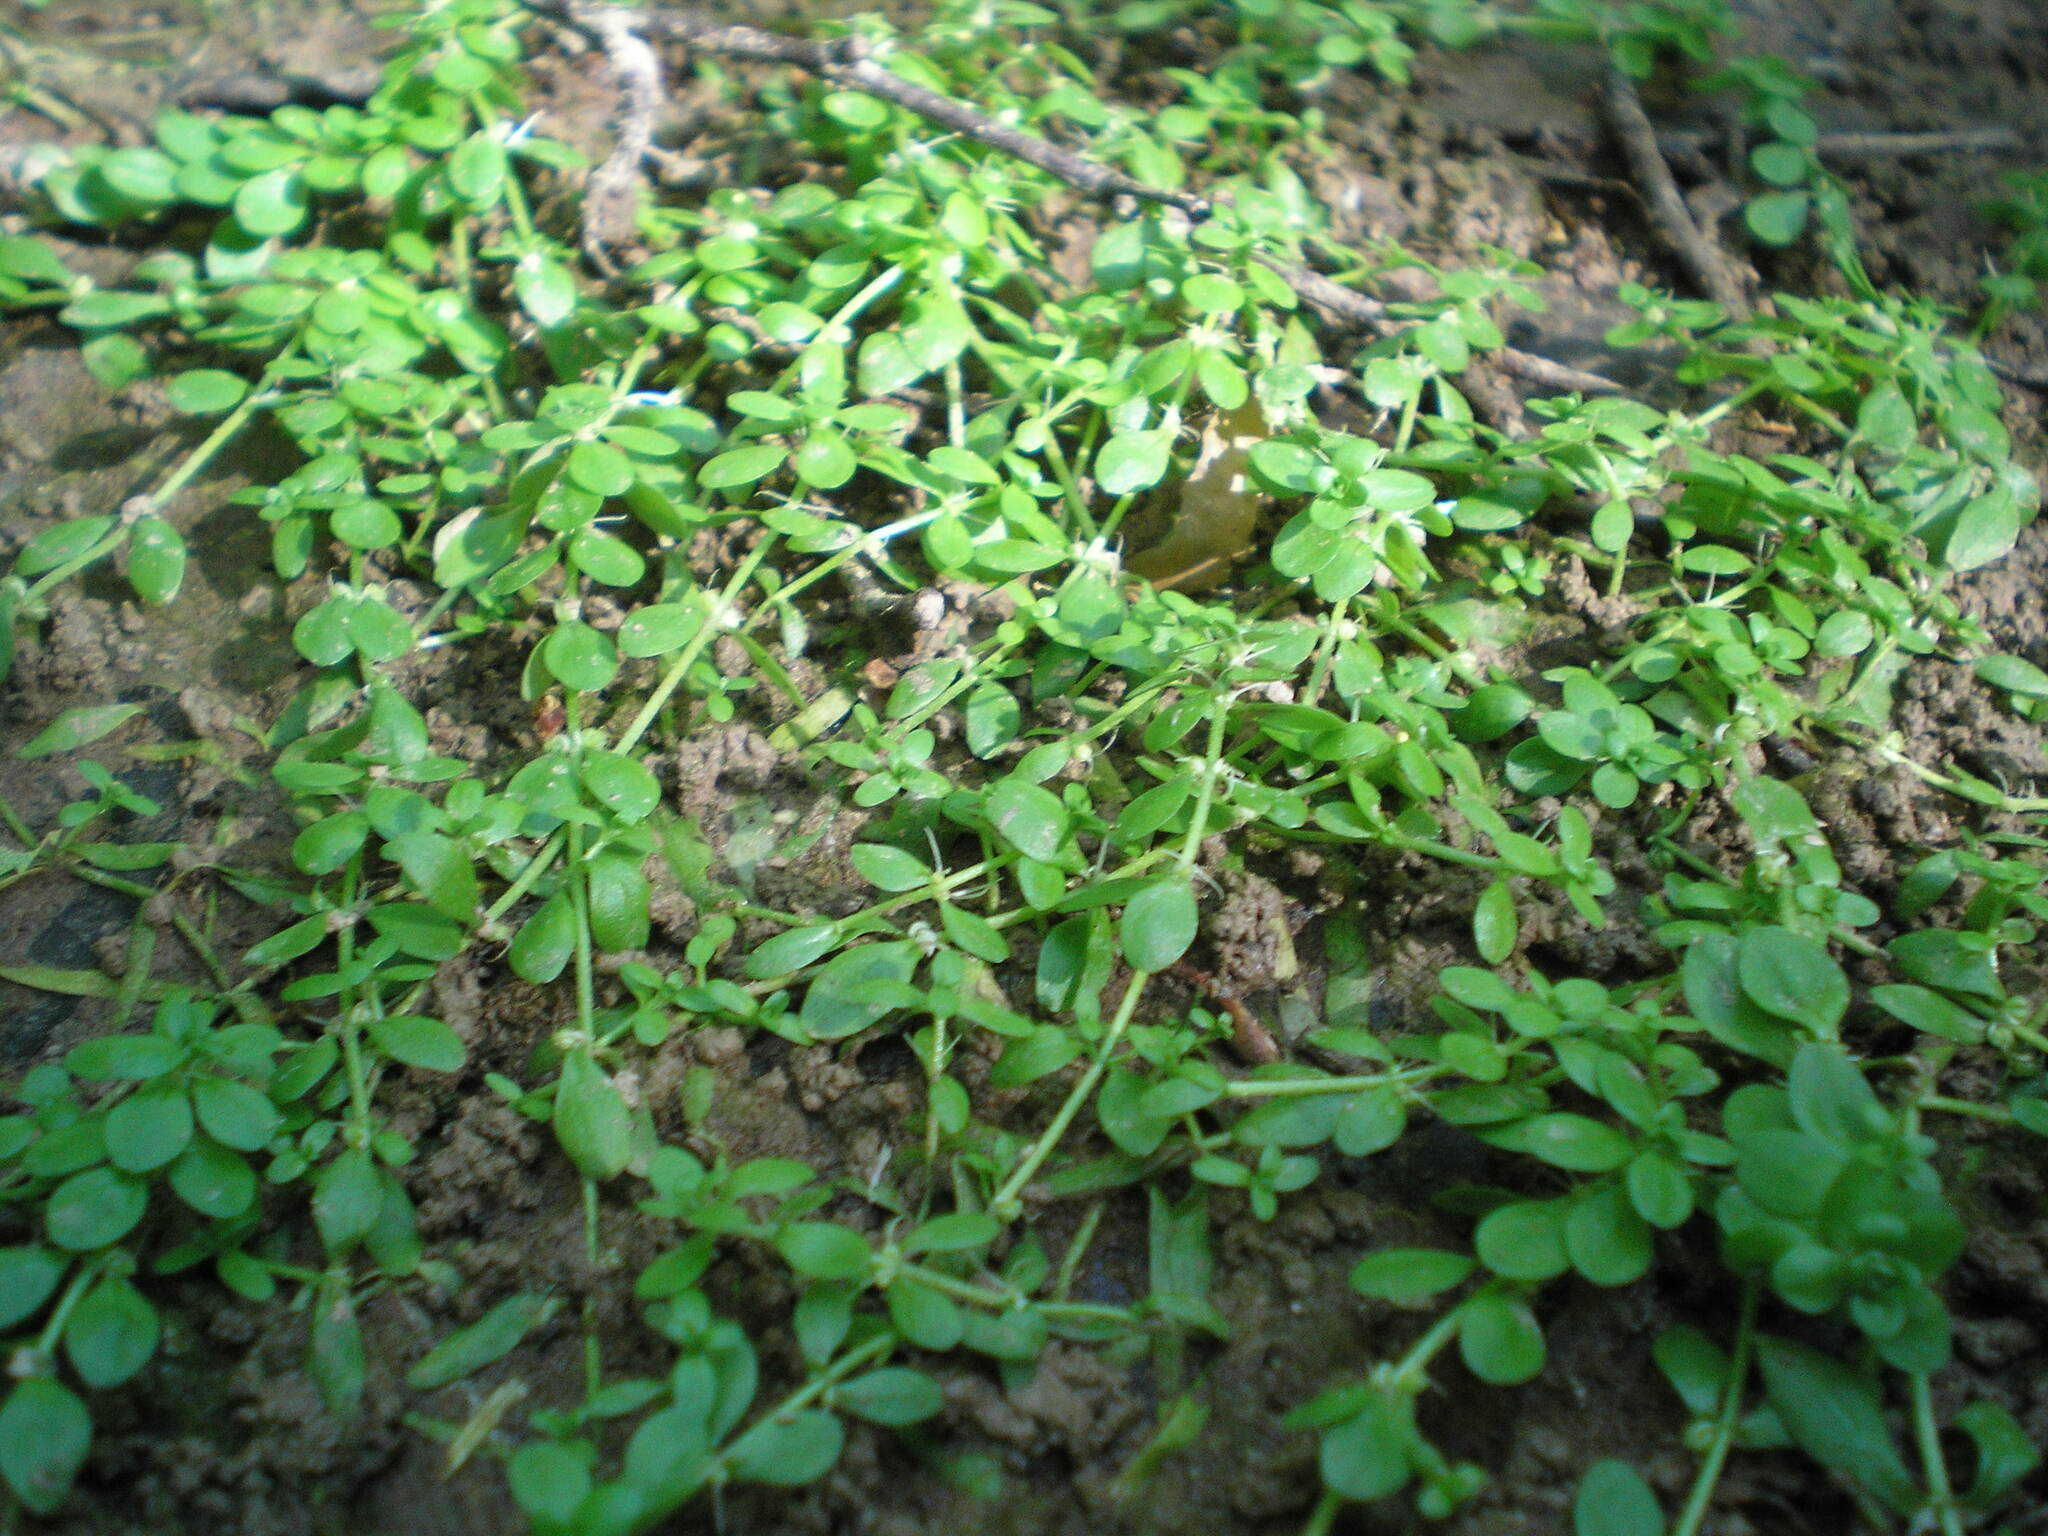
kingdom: Plantae
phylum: Tracheophyta
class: Magnoliopsida
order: Lamiales
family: Plantaginaceae
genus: Callitriche
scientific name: Callitriche palustris
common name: Spring water-starwort
